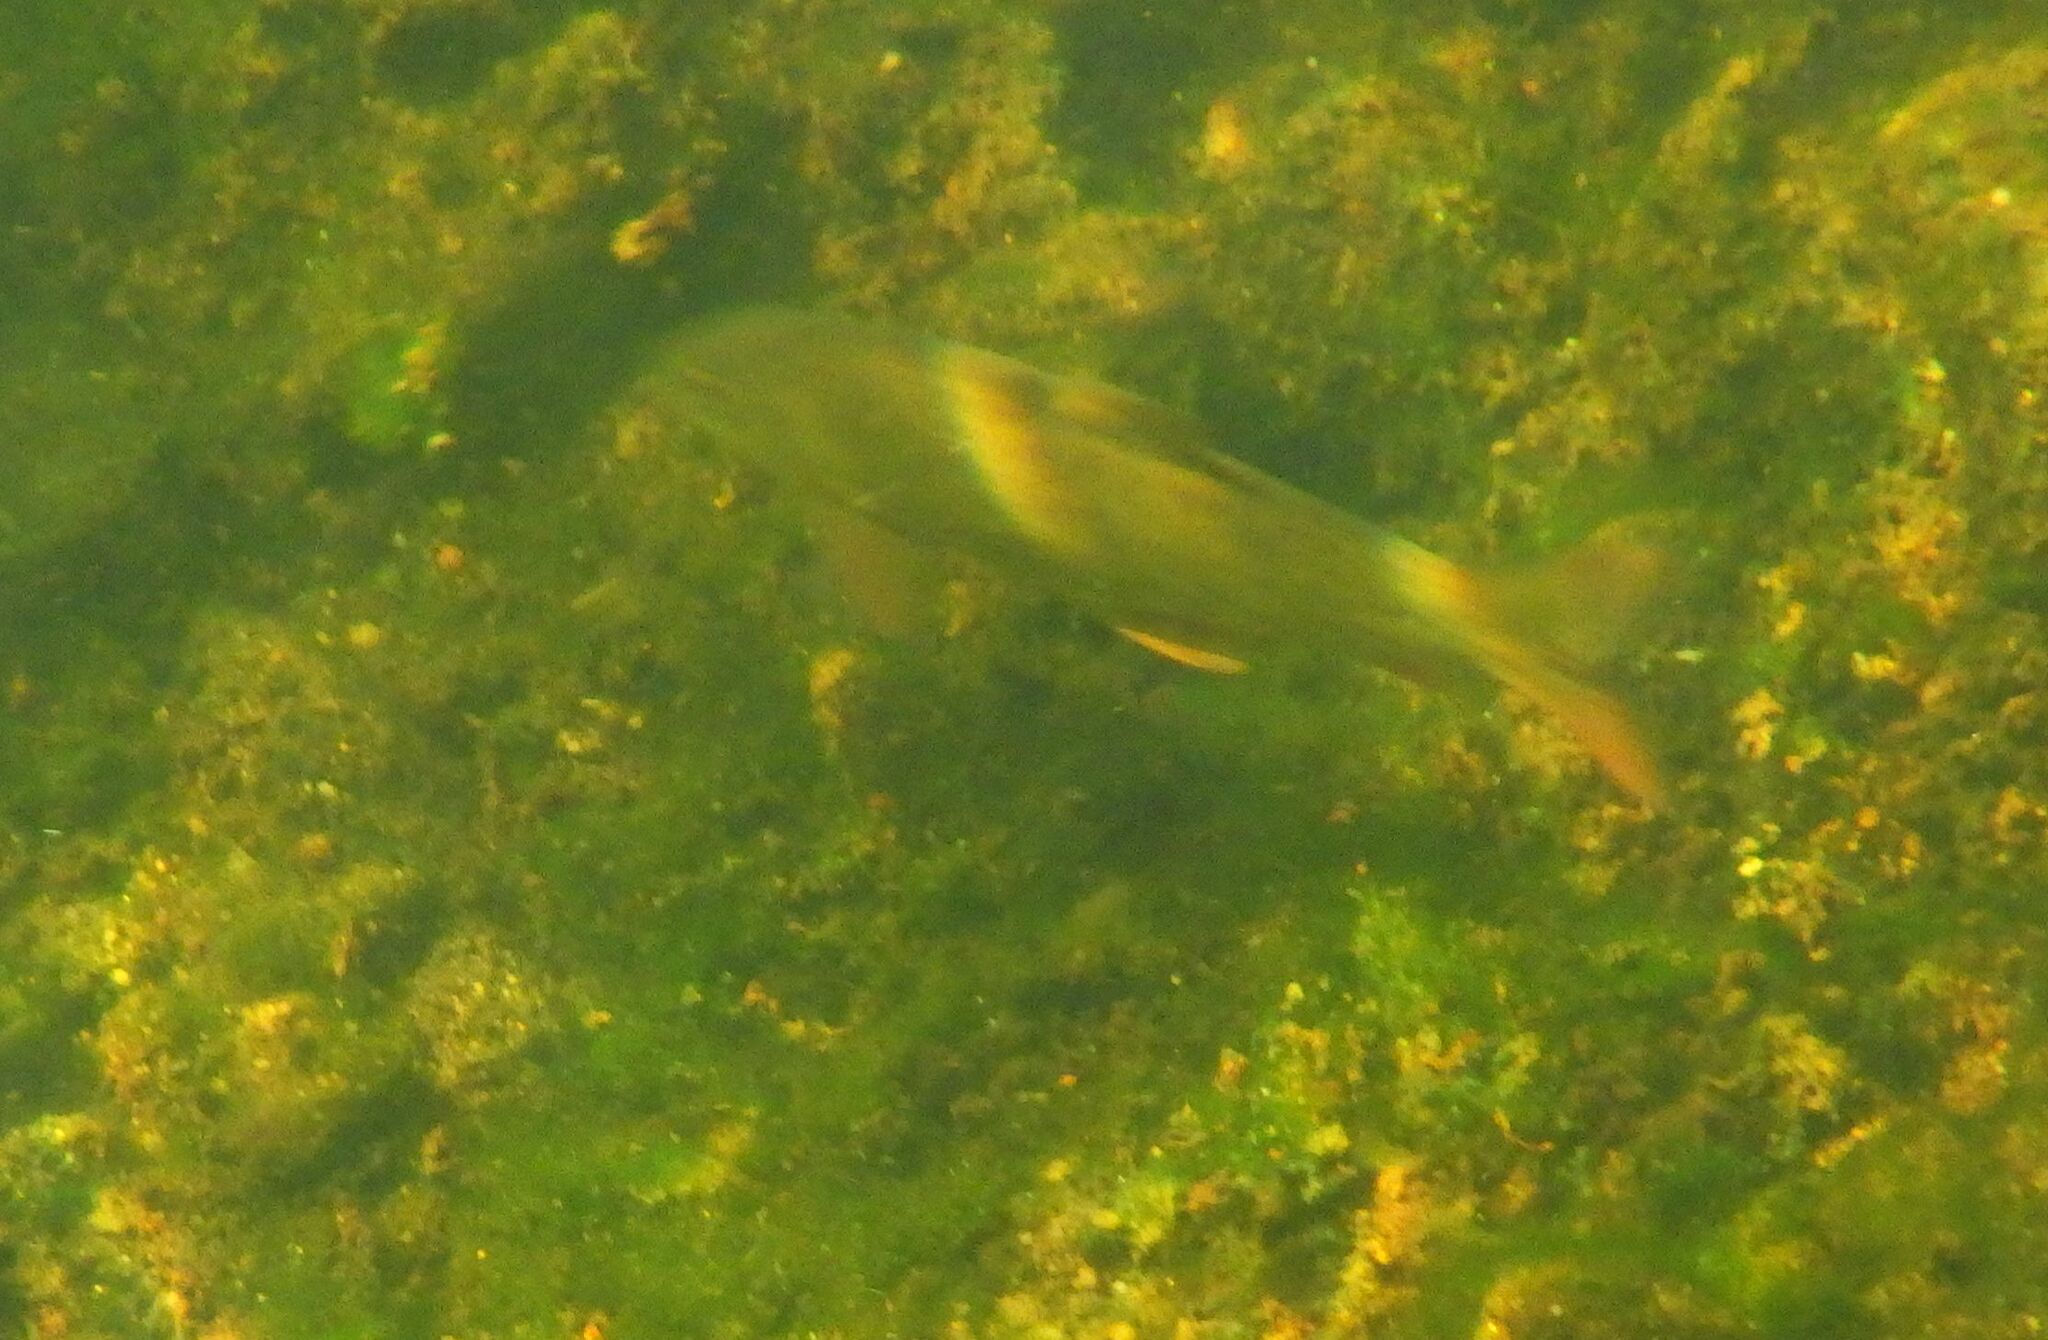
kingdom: Animalia
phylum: Chordata
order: Cypriniformes
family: Cyprinidae
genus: Barbus
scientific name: Barbus barbus
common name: Barbel
